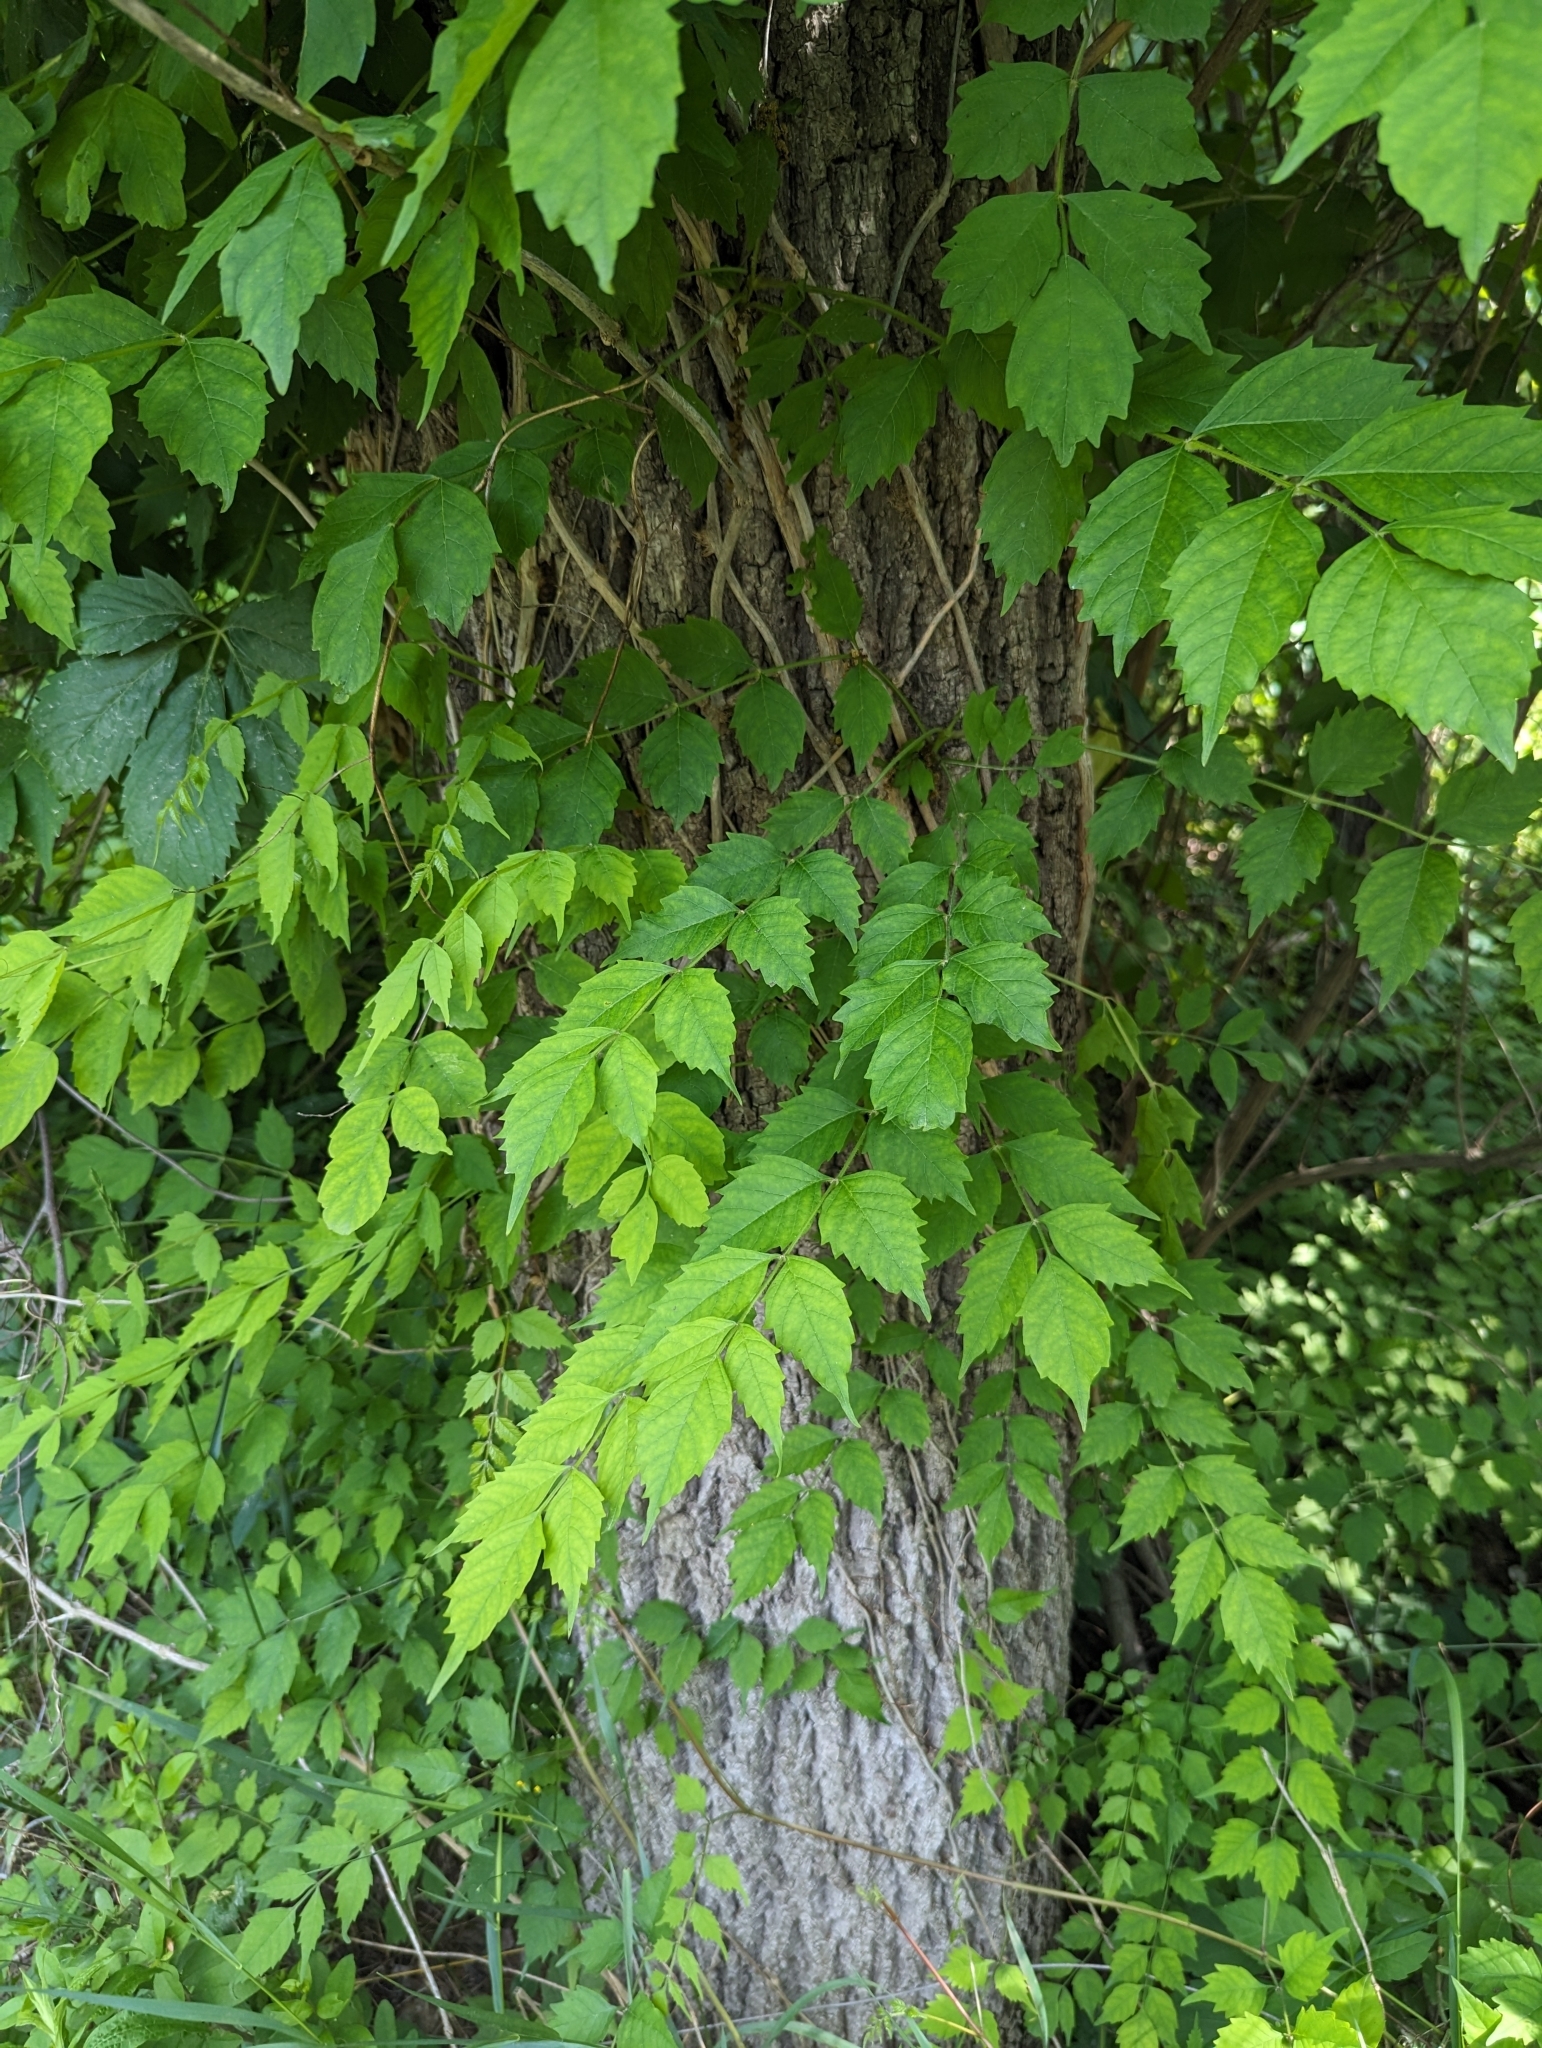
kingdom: Plantae
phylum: Tracheophyta
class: Magnoliopsida
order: Lamiales
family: Bignoniaceae
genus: Campsis
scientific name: Campsis radicans
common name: Trumpet-creeper
